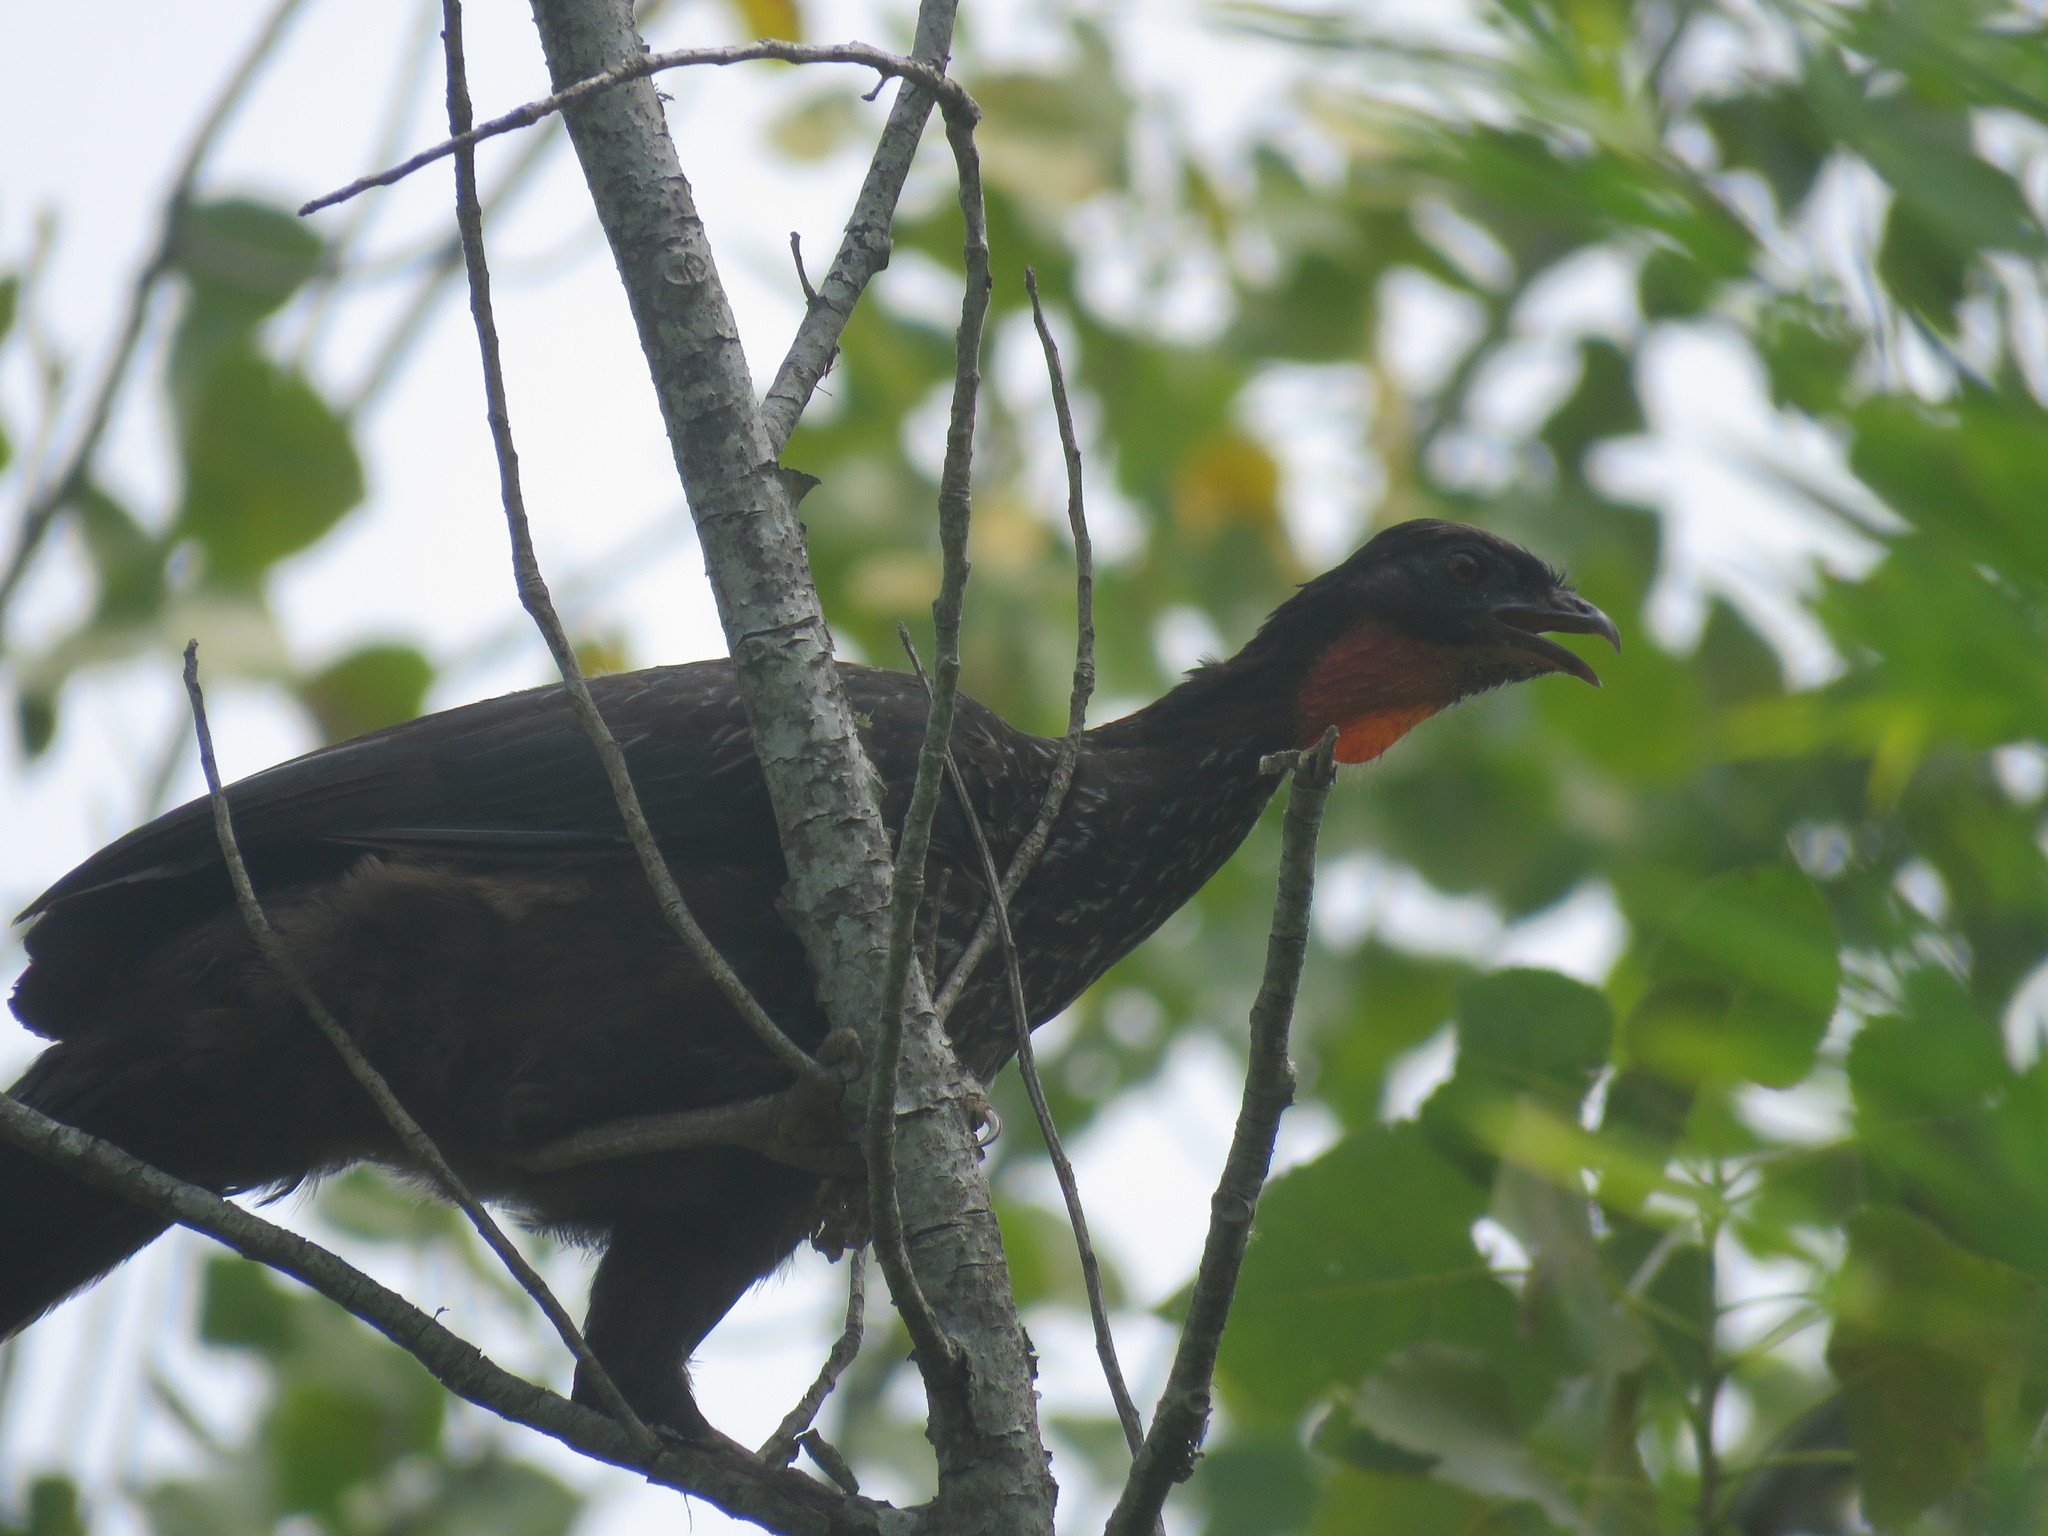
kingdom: Animalia
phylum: Chordata
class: Aves
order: Galliformes
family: Cracidae
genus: Penelope
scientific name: Penelope obscura
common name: Dusky-legged guan
